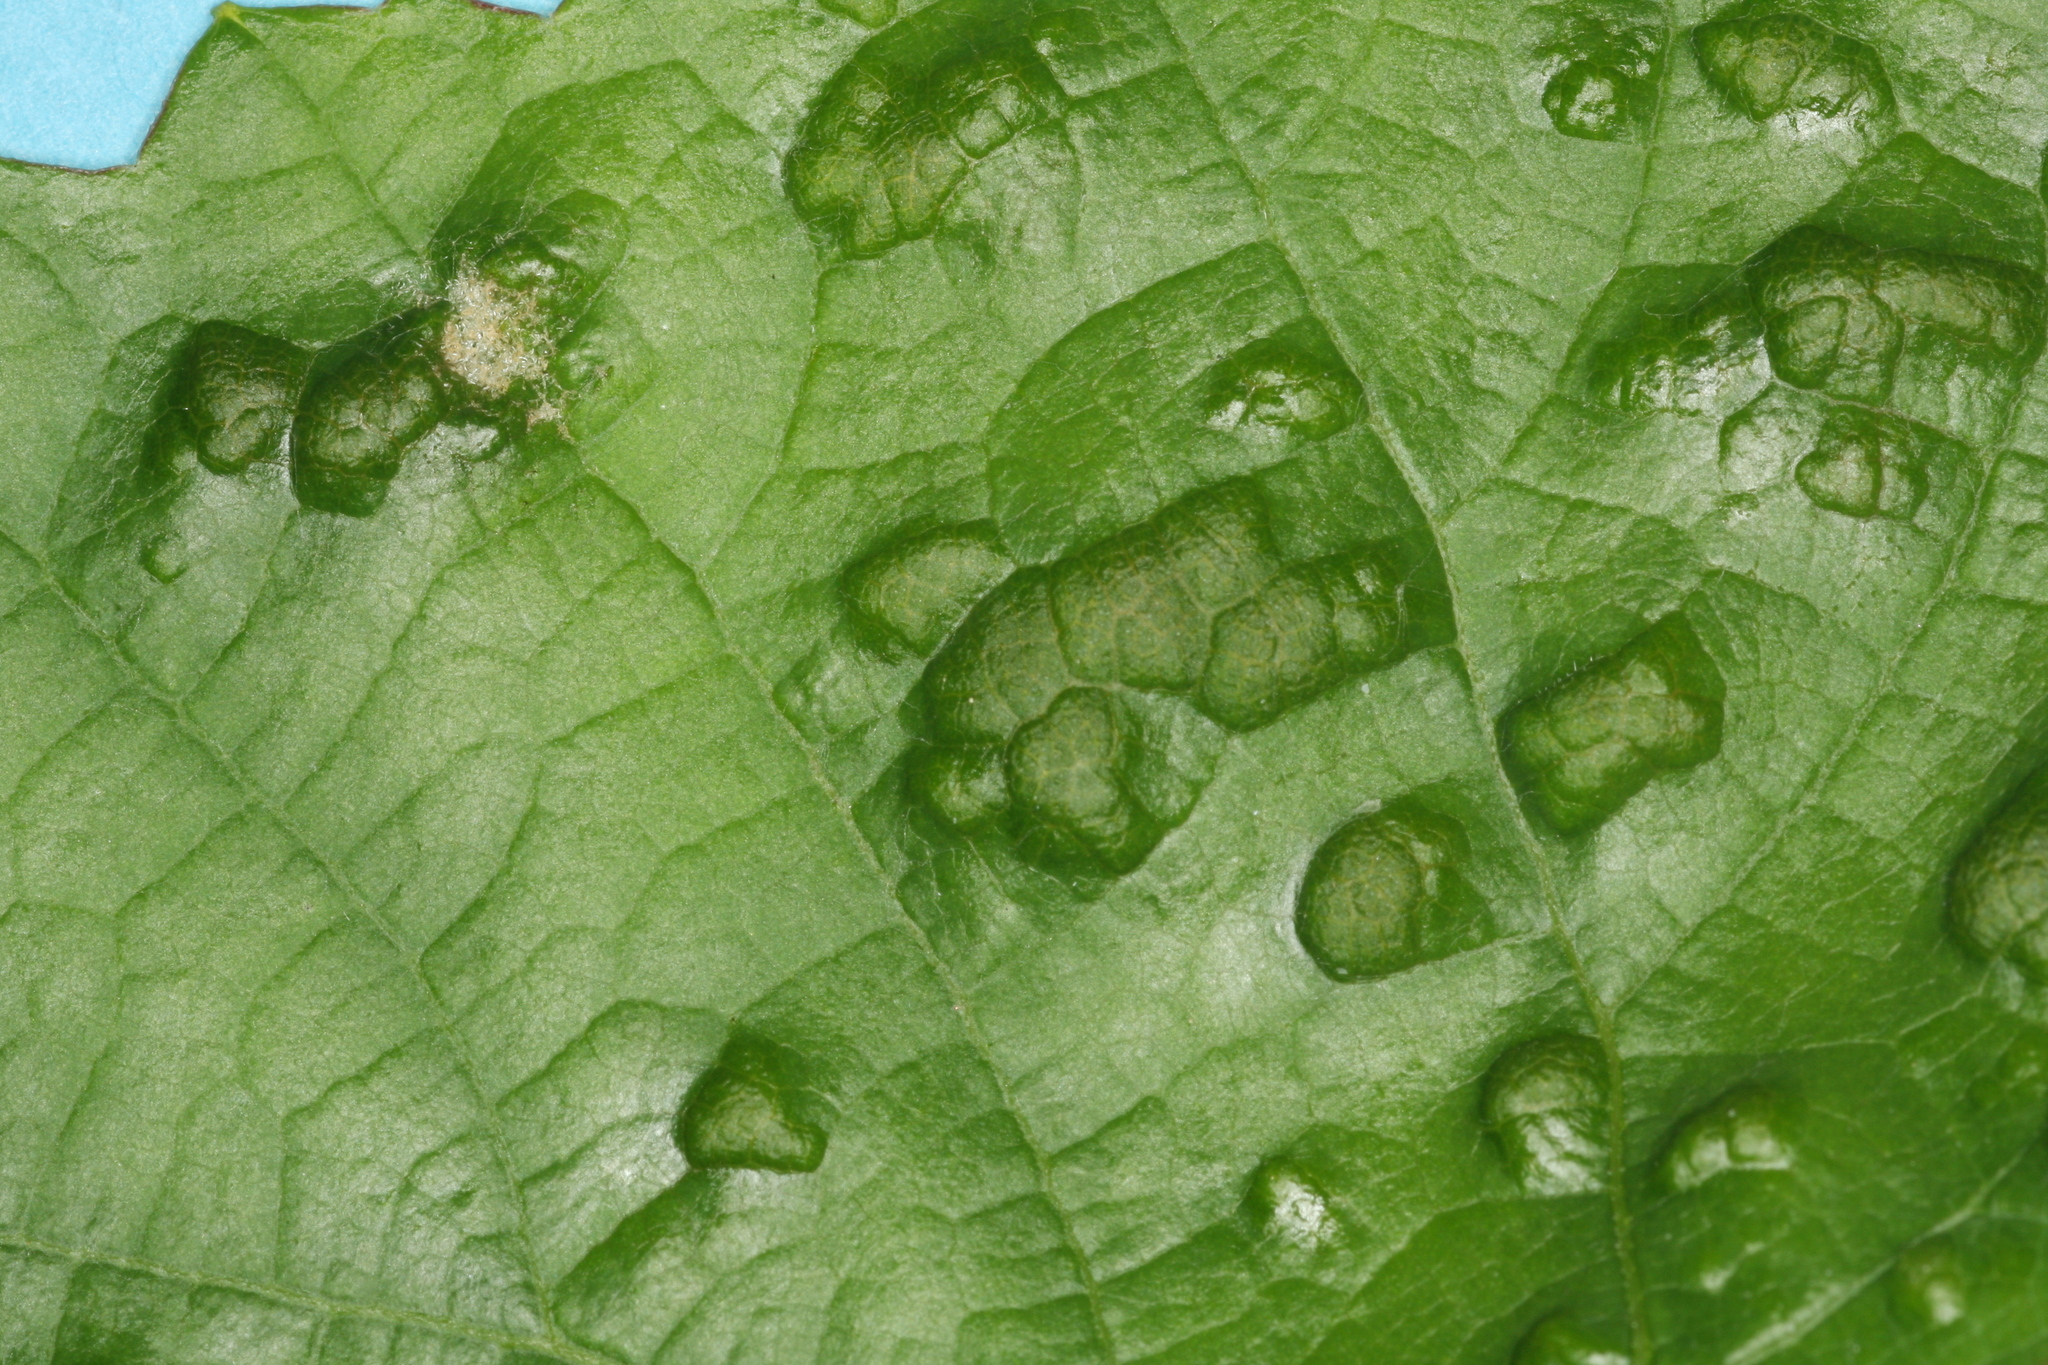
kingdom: Animalia
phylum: Arthropoda
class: Arachnida
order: Trombidiformes
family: Eriophyidae
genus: Colomerus
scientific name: Colomerus vitis
